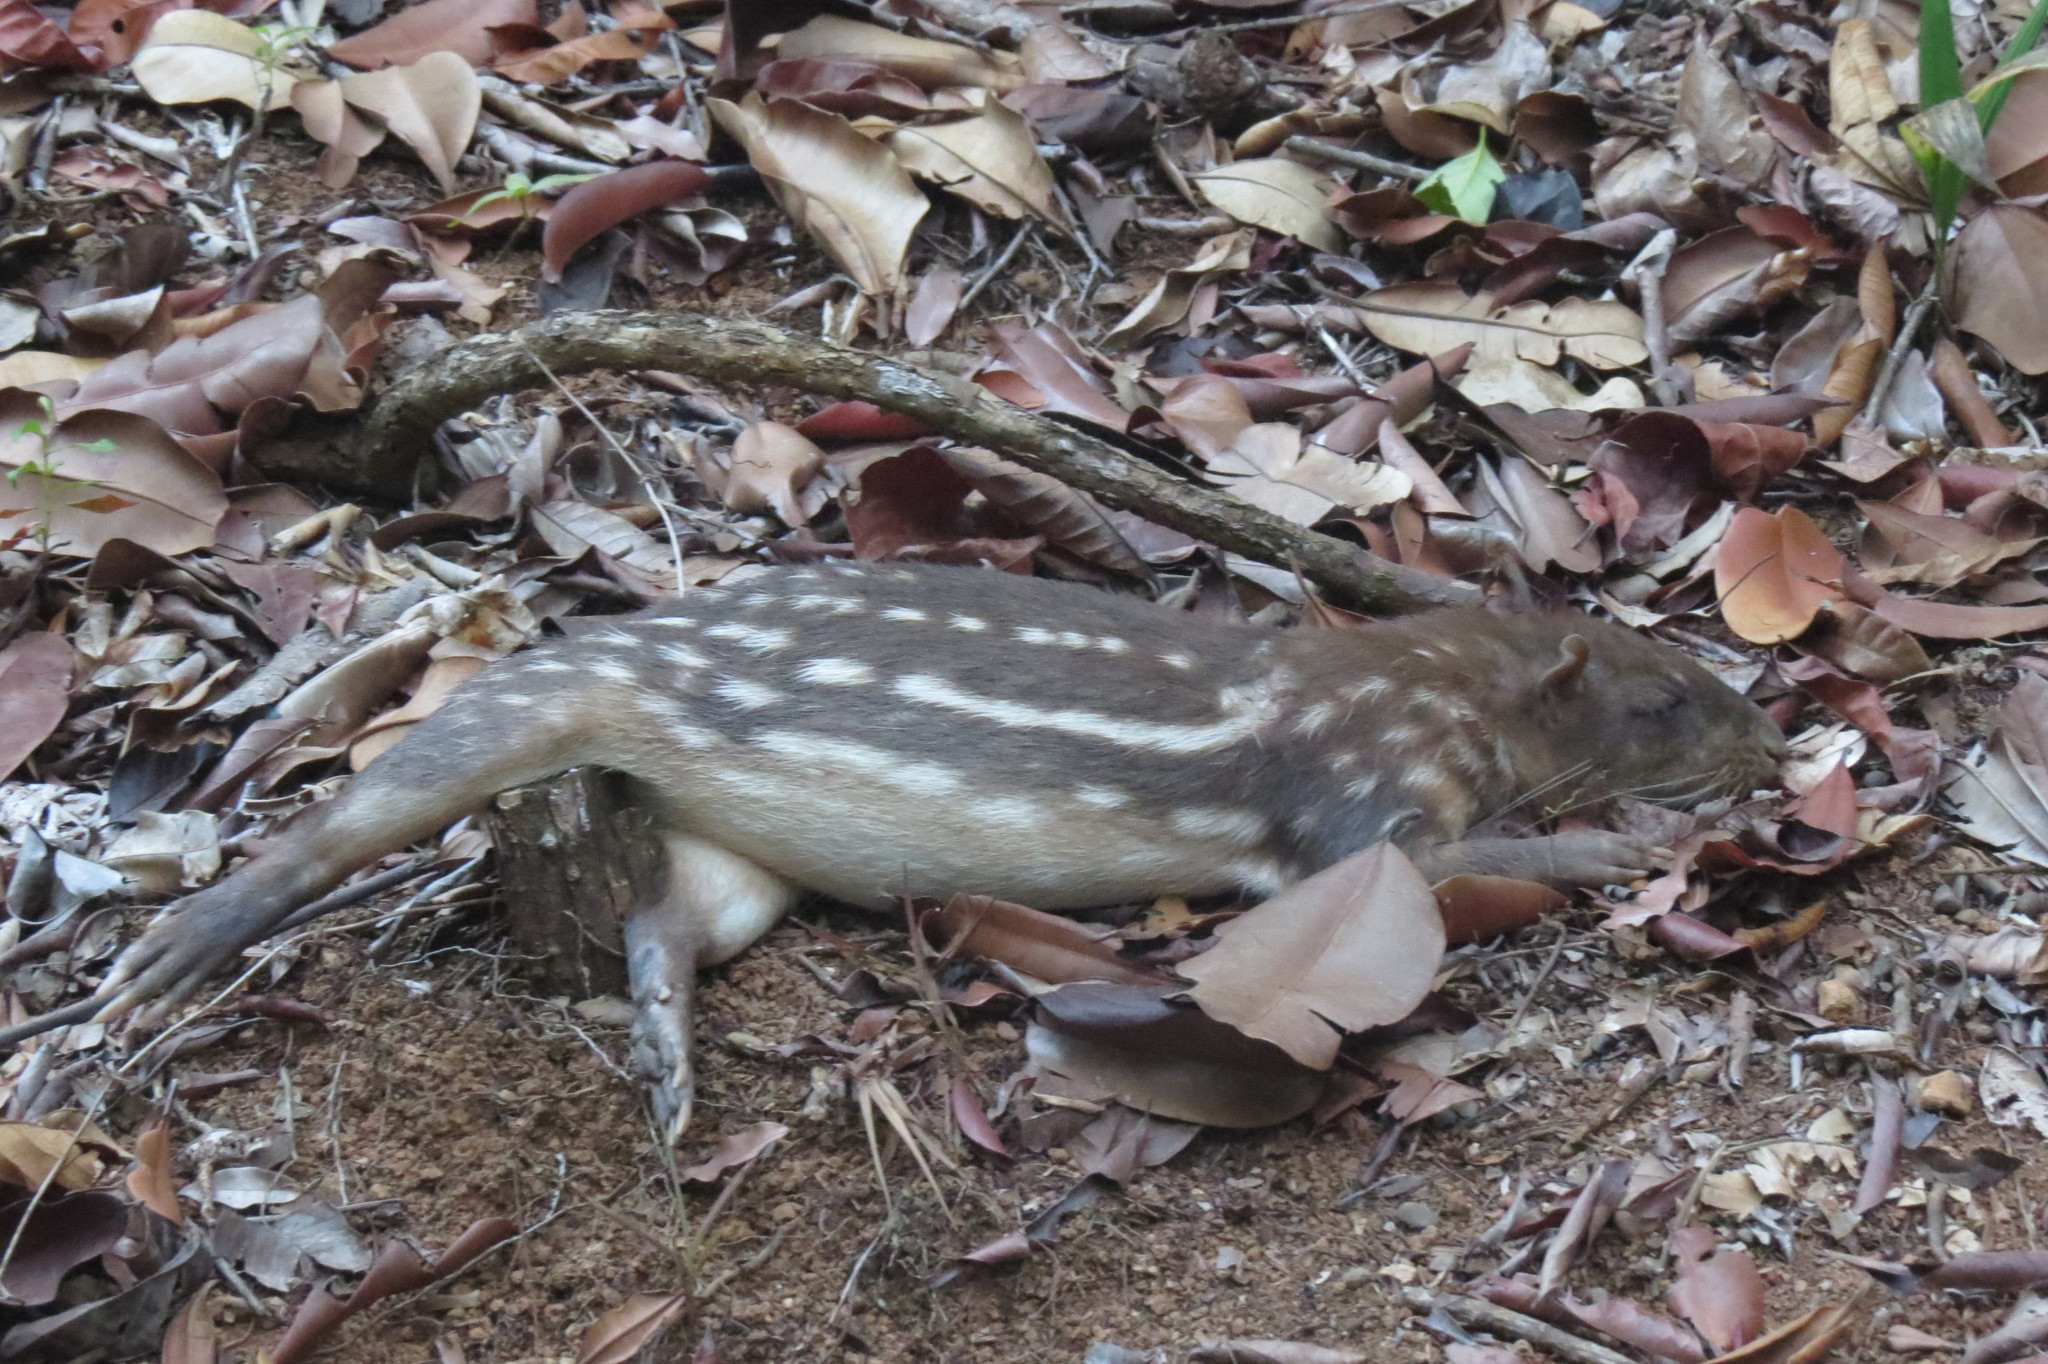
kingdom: Animalia
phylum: Chordata
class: Mammalia
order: Rodentia
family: Cuniculidae
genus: Cuniculus
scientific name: Cuniculus paca
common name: Lowland paca
